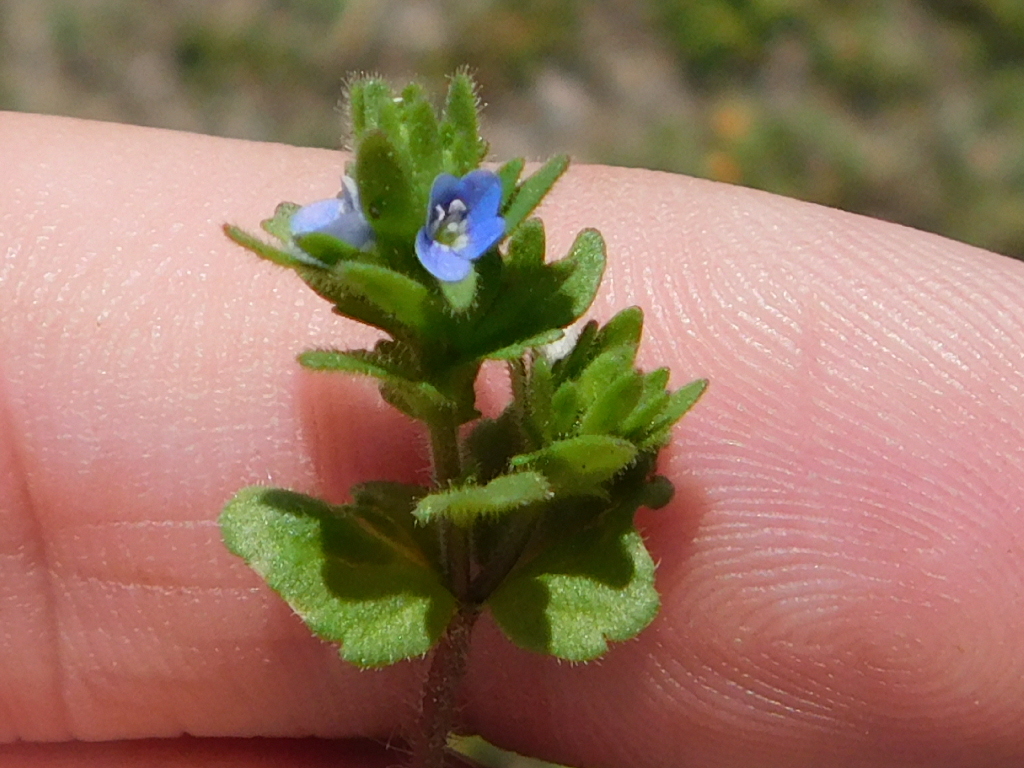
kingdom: Plantae
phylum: Tracheophyta
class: Magnoliopsida
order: Lamiales
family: Plantaginaceae
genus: Veronica
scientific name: Veronica arvensis
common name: Corn speedwell
